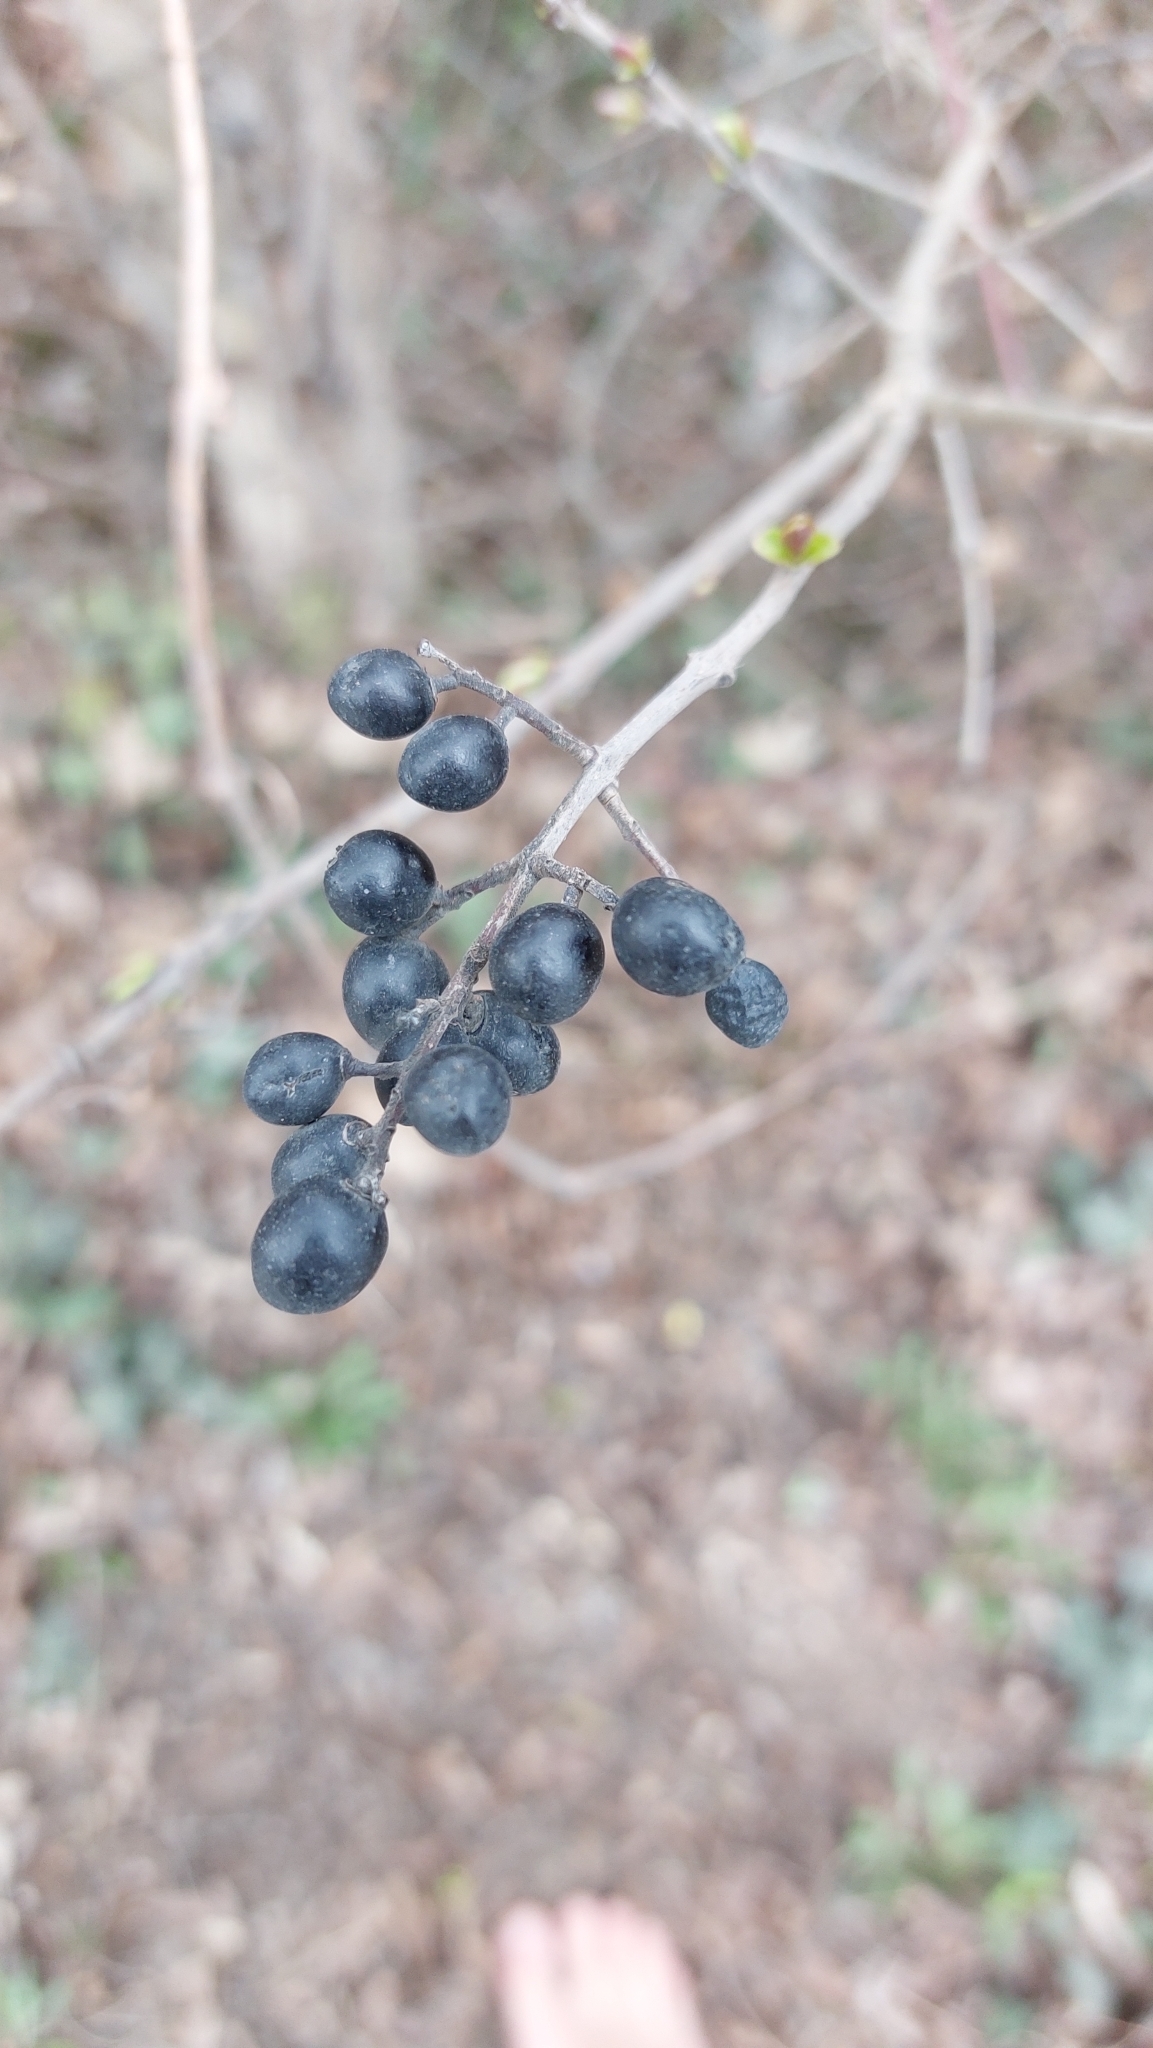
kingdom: Plantae
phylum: Tracheophyta
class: Magnoliopsida
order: Lamiales
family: Oleaceae
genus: Ligustrum
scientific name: Ligustrum vulgare
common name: Wild privet
